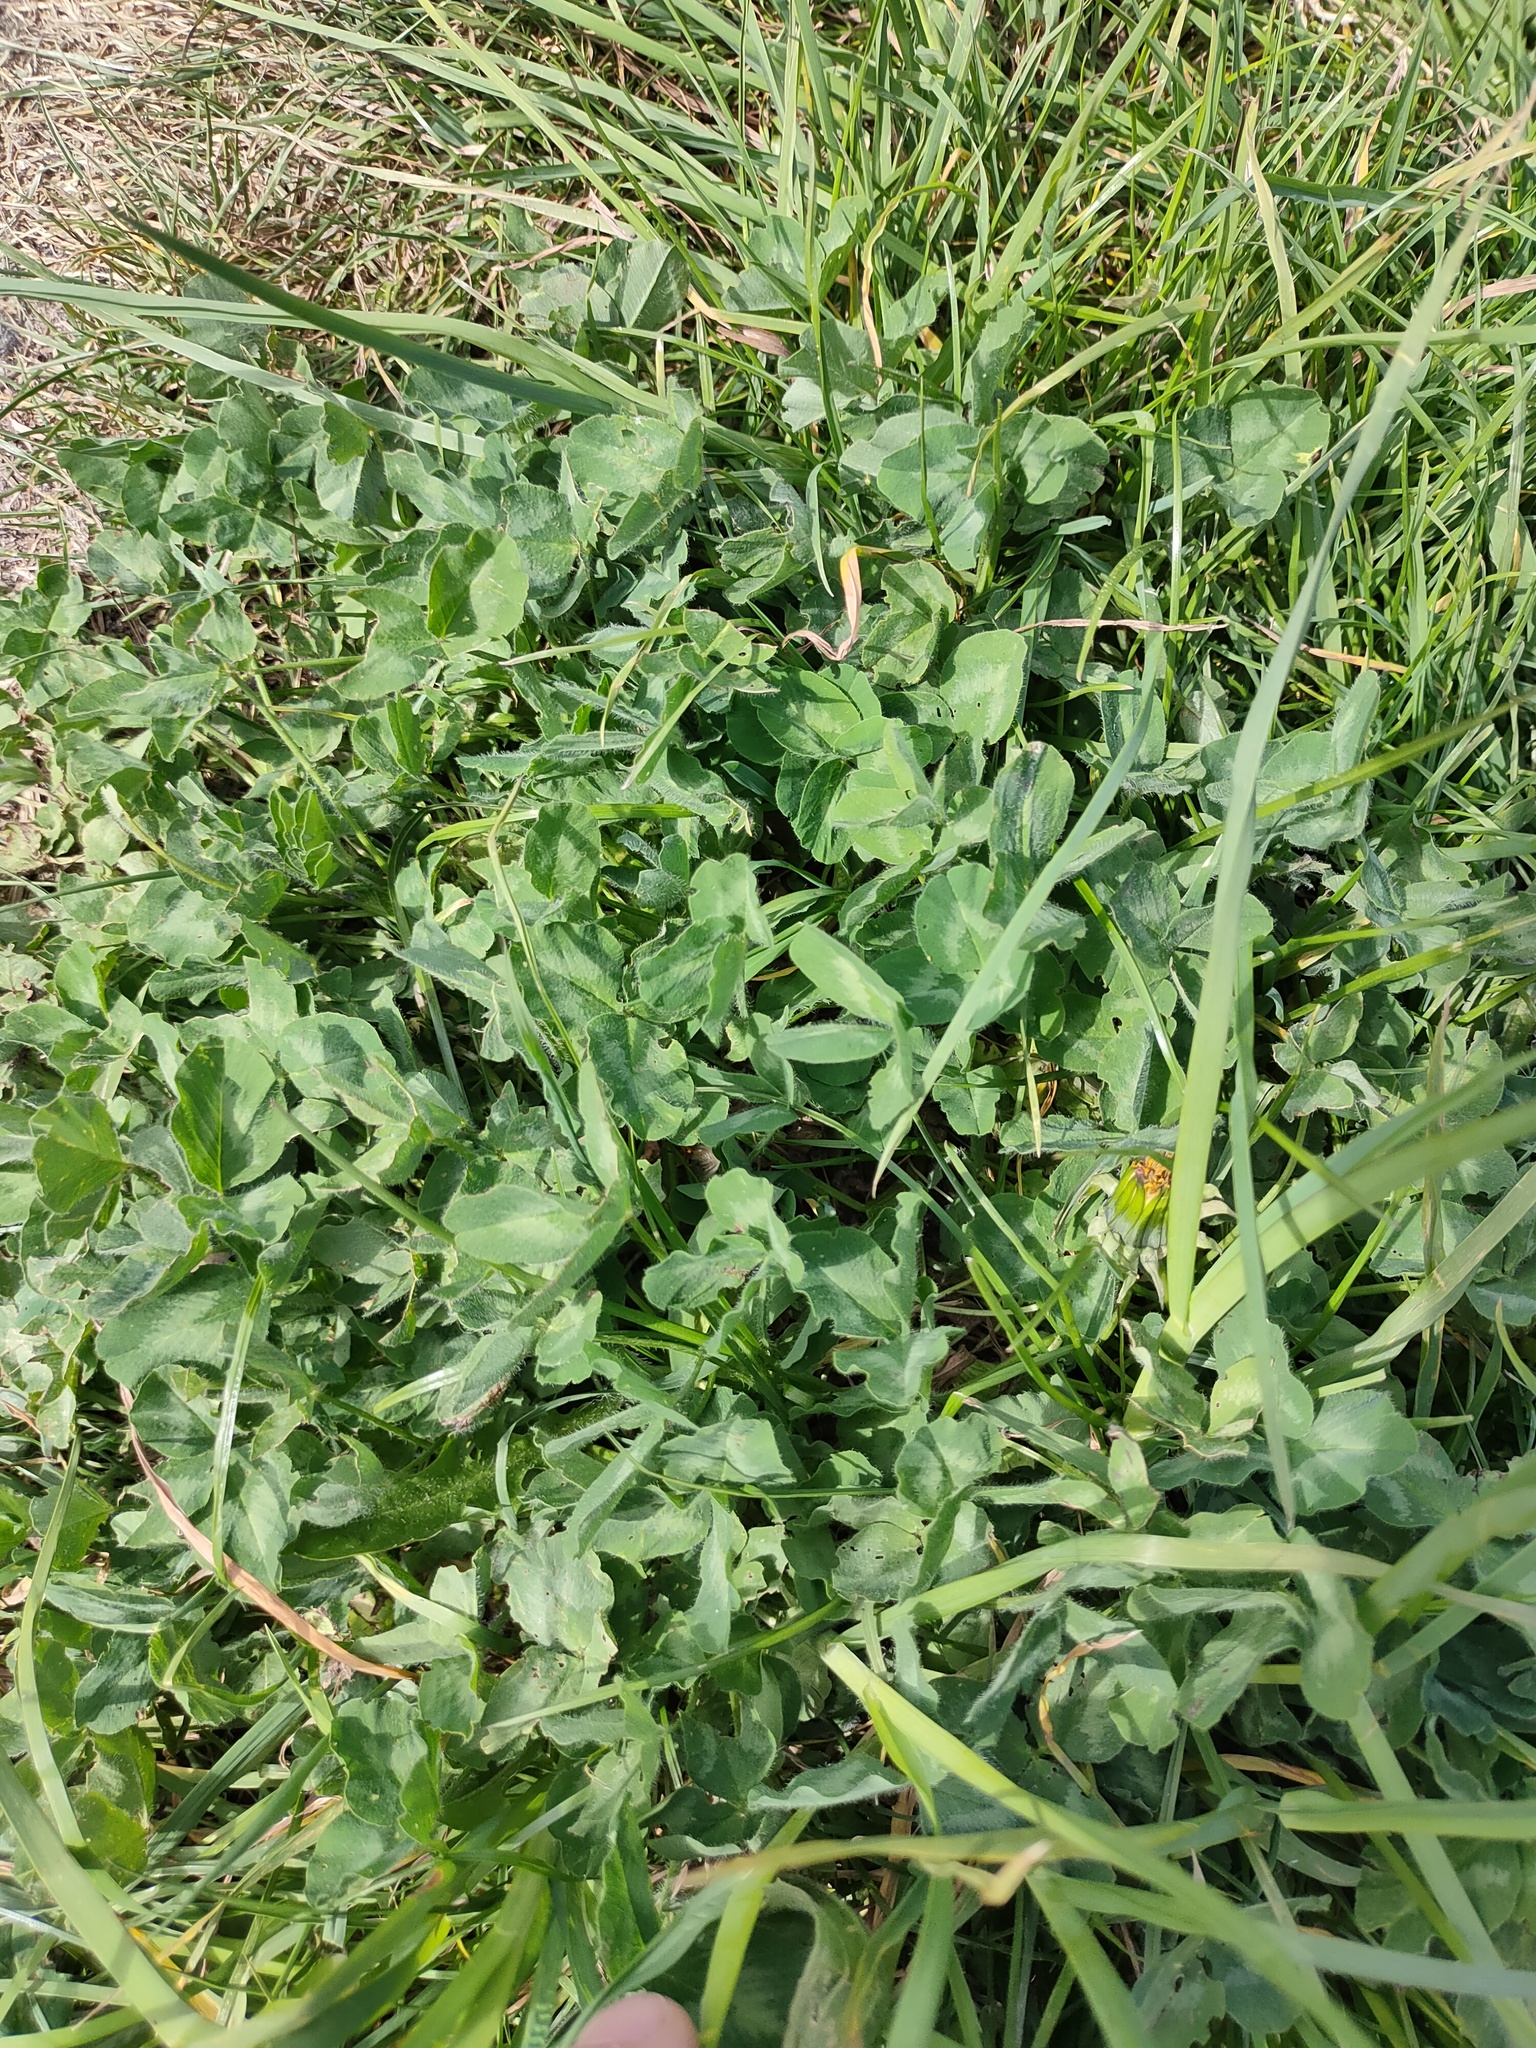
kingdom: Plantae
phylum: Tracheophyta
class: Magnoliopsida
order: Fabales
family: Fabaceae
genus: Trifolium
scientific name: Trifolium pratense
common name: Red clover
